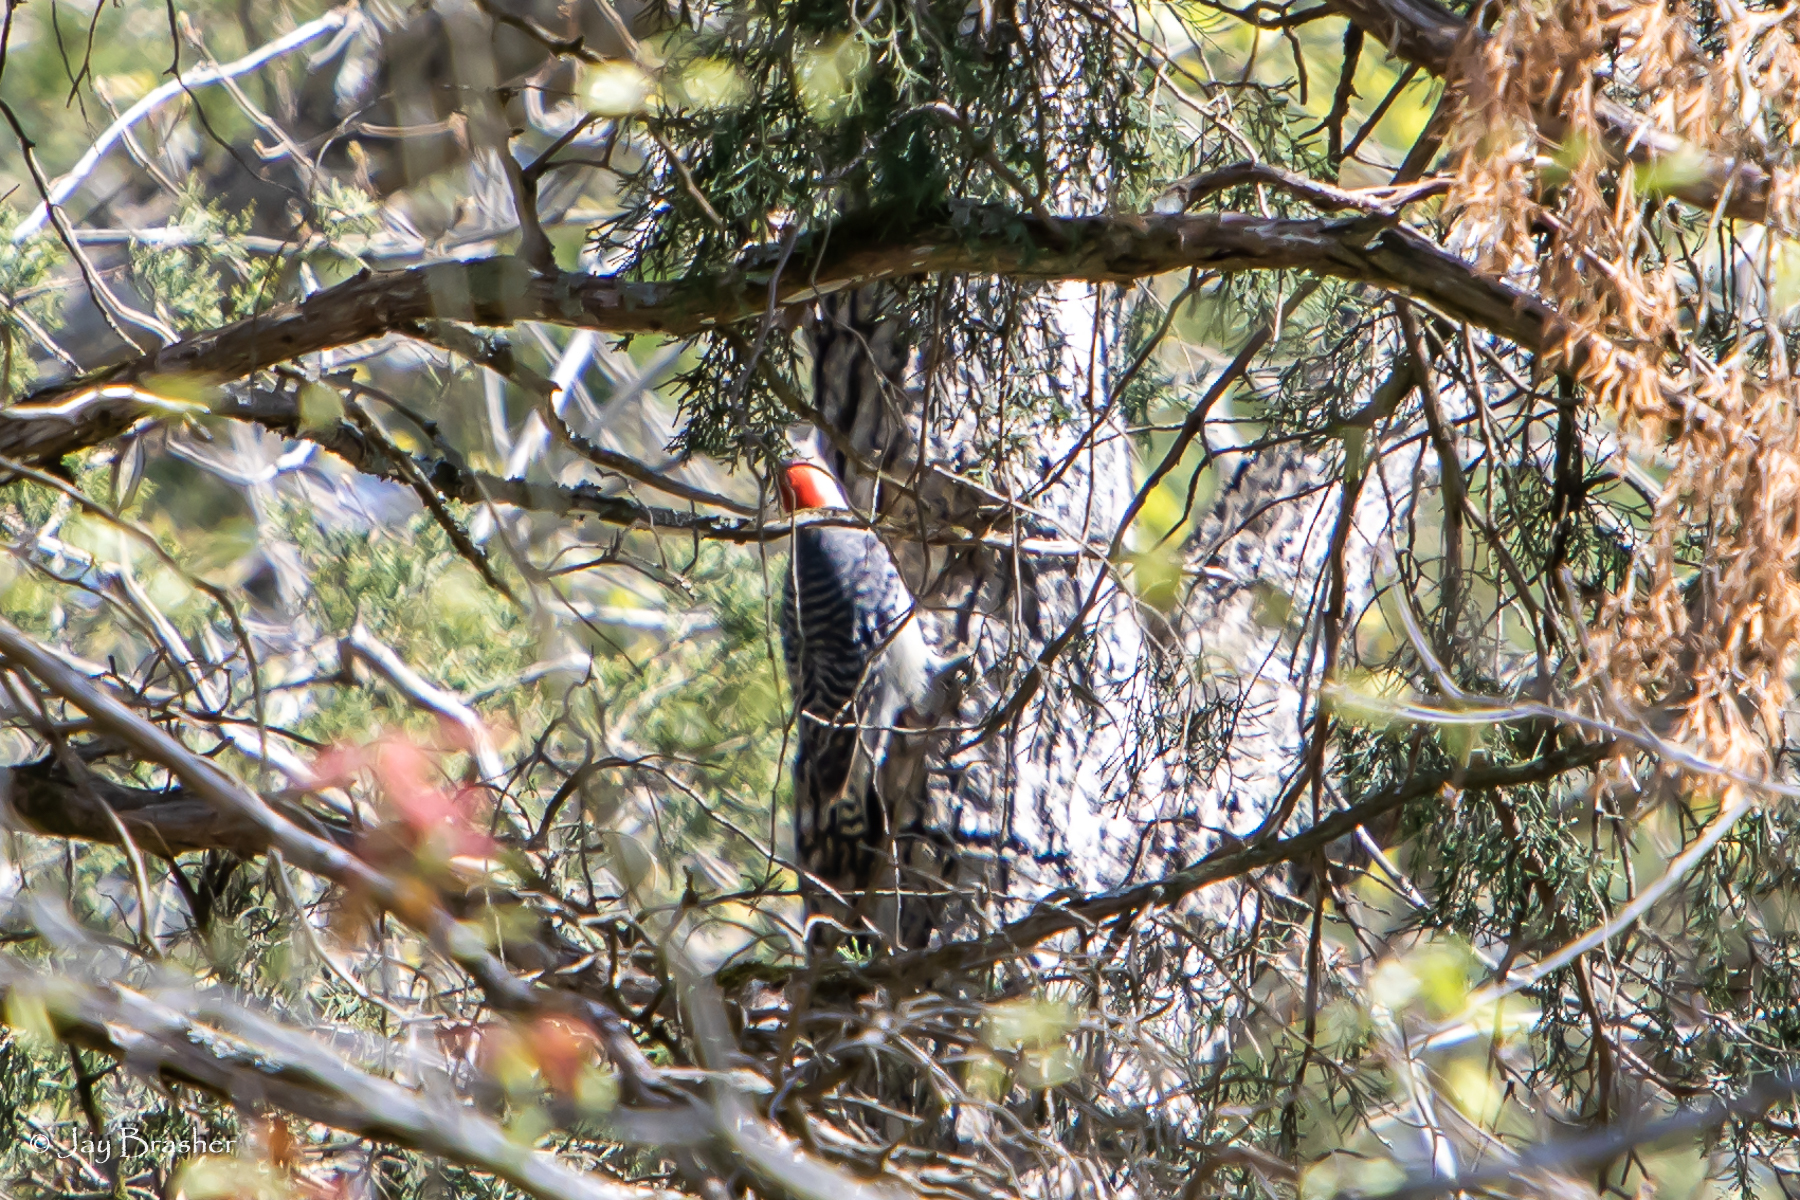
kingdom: Animalia
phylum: Chordata
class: Aves
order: Piciformes
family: Picidae
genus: Melanerpes
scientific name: Melanerpes carolinus
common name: Red-bellied woodpecker
